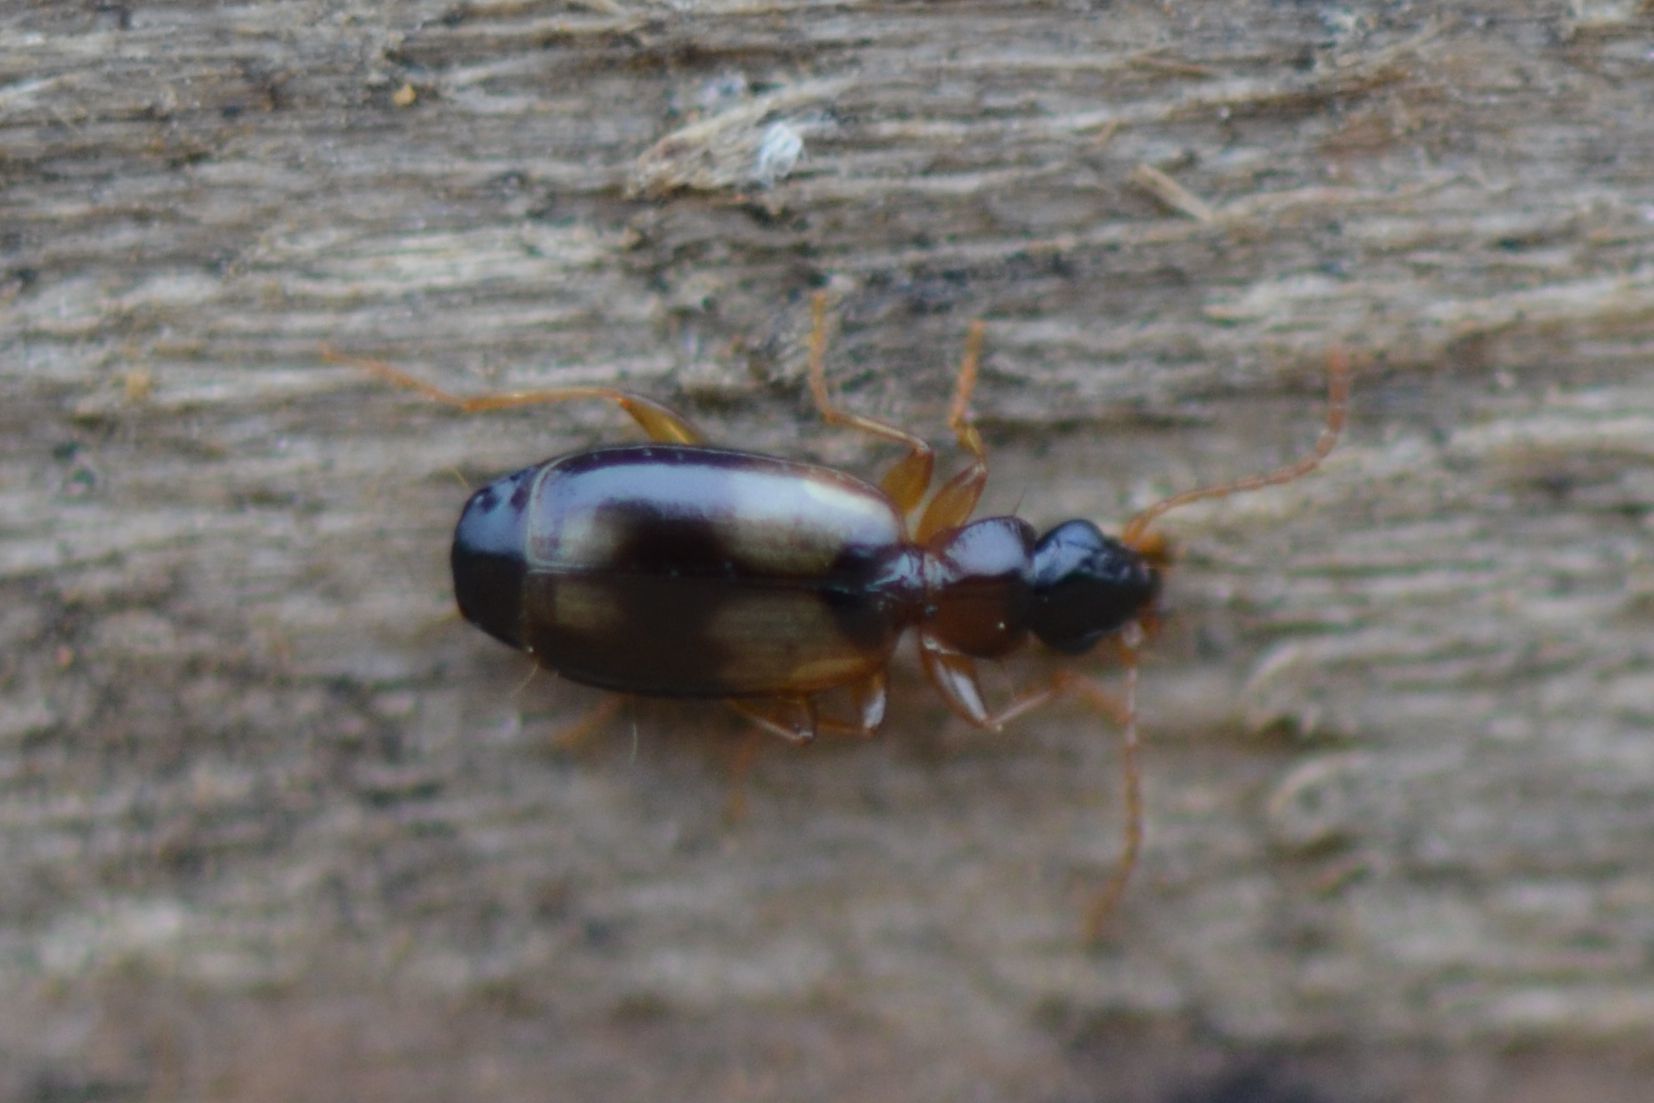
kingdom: Animalia
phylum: Arthropoda
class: Insecta
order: Coleoptera
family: Carabidae
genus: Calodromius
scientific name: Calodromius spilotus
